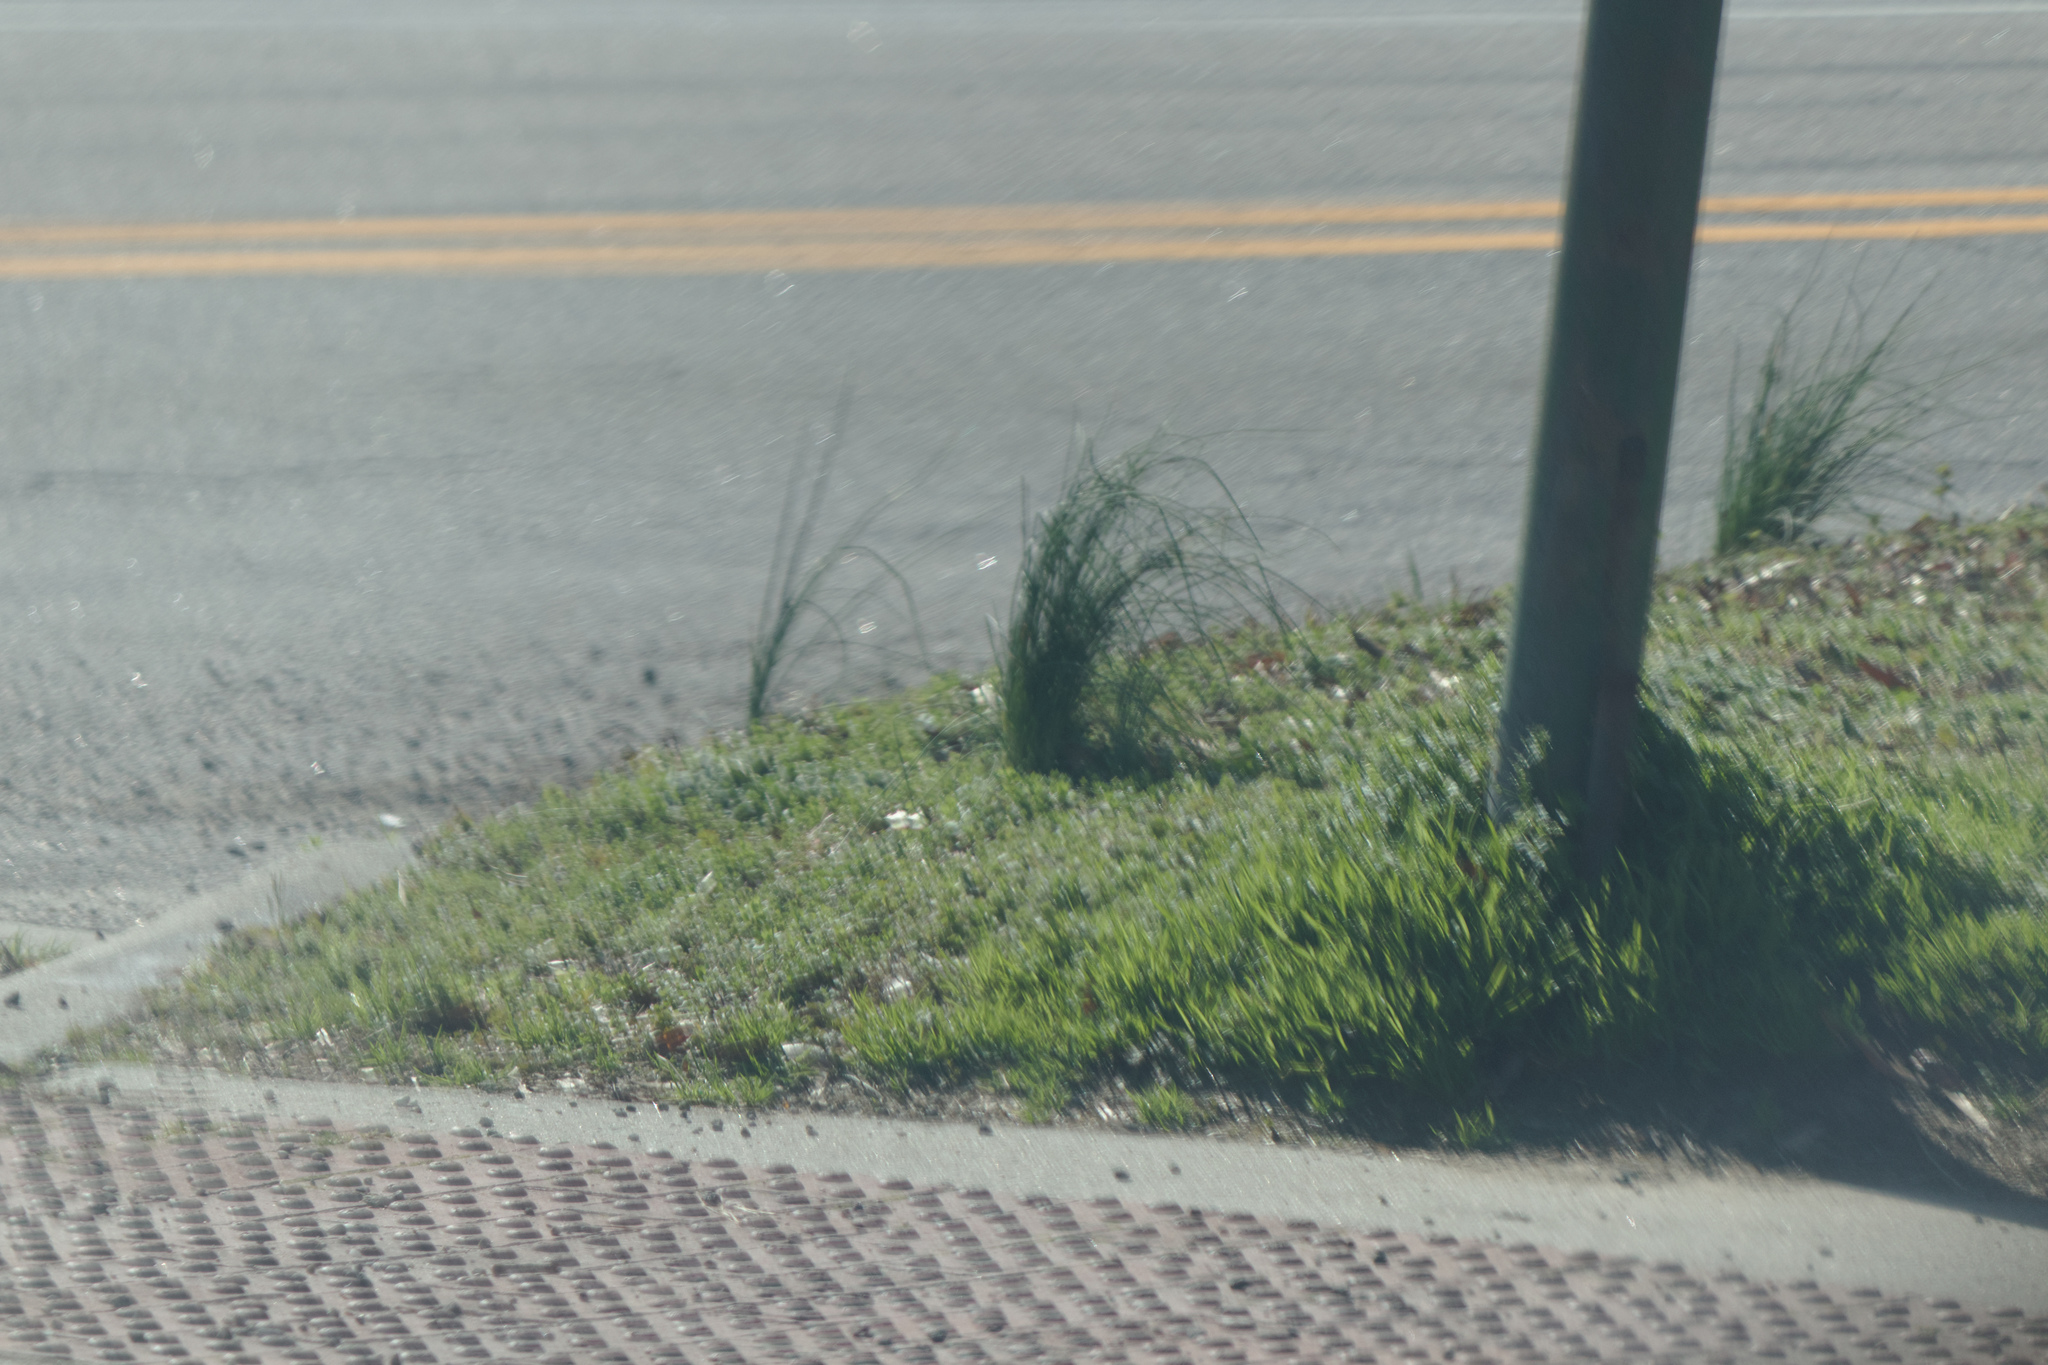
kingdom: Plantae
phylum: Tracheophyta
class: Liliopsida
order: Asparagales
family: Amaryllidaceae
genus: Allium
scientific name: Allium vineale
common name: Crow garlic
